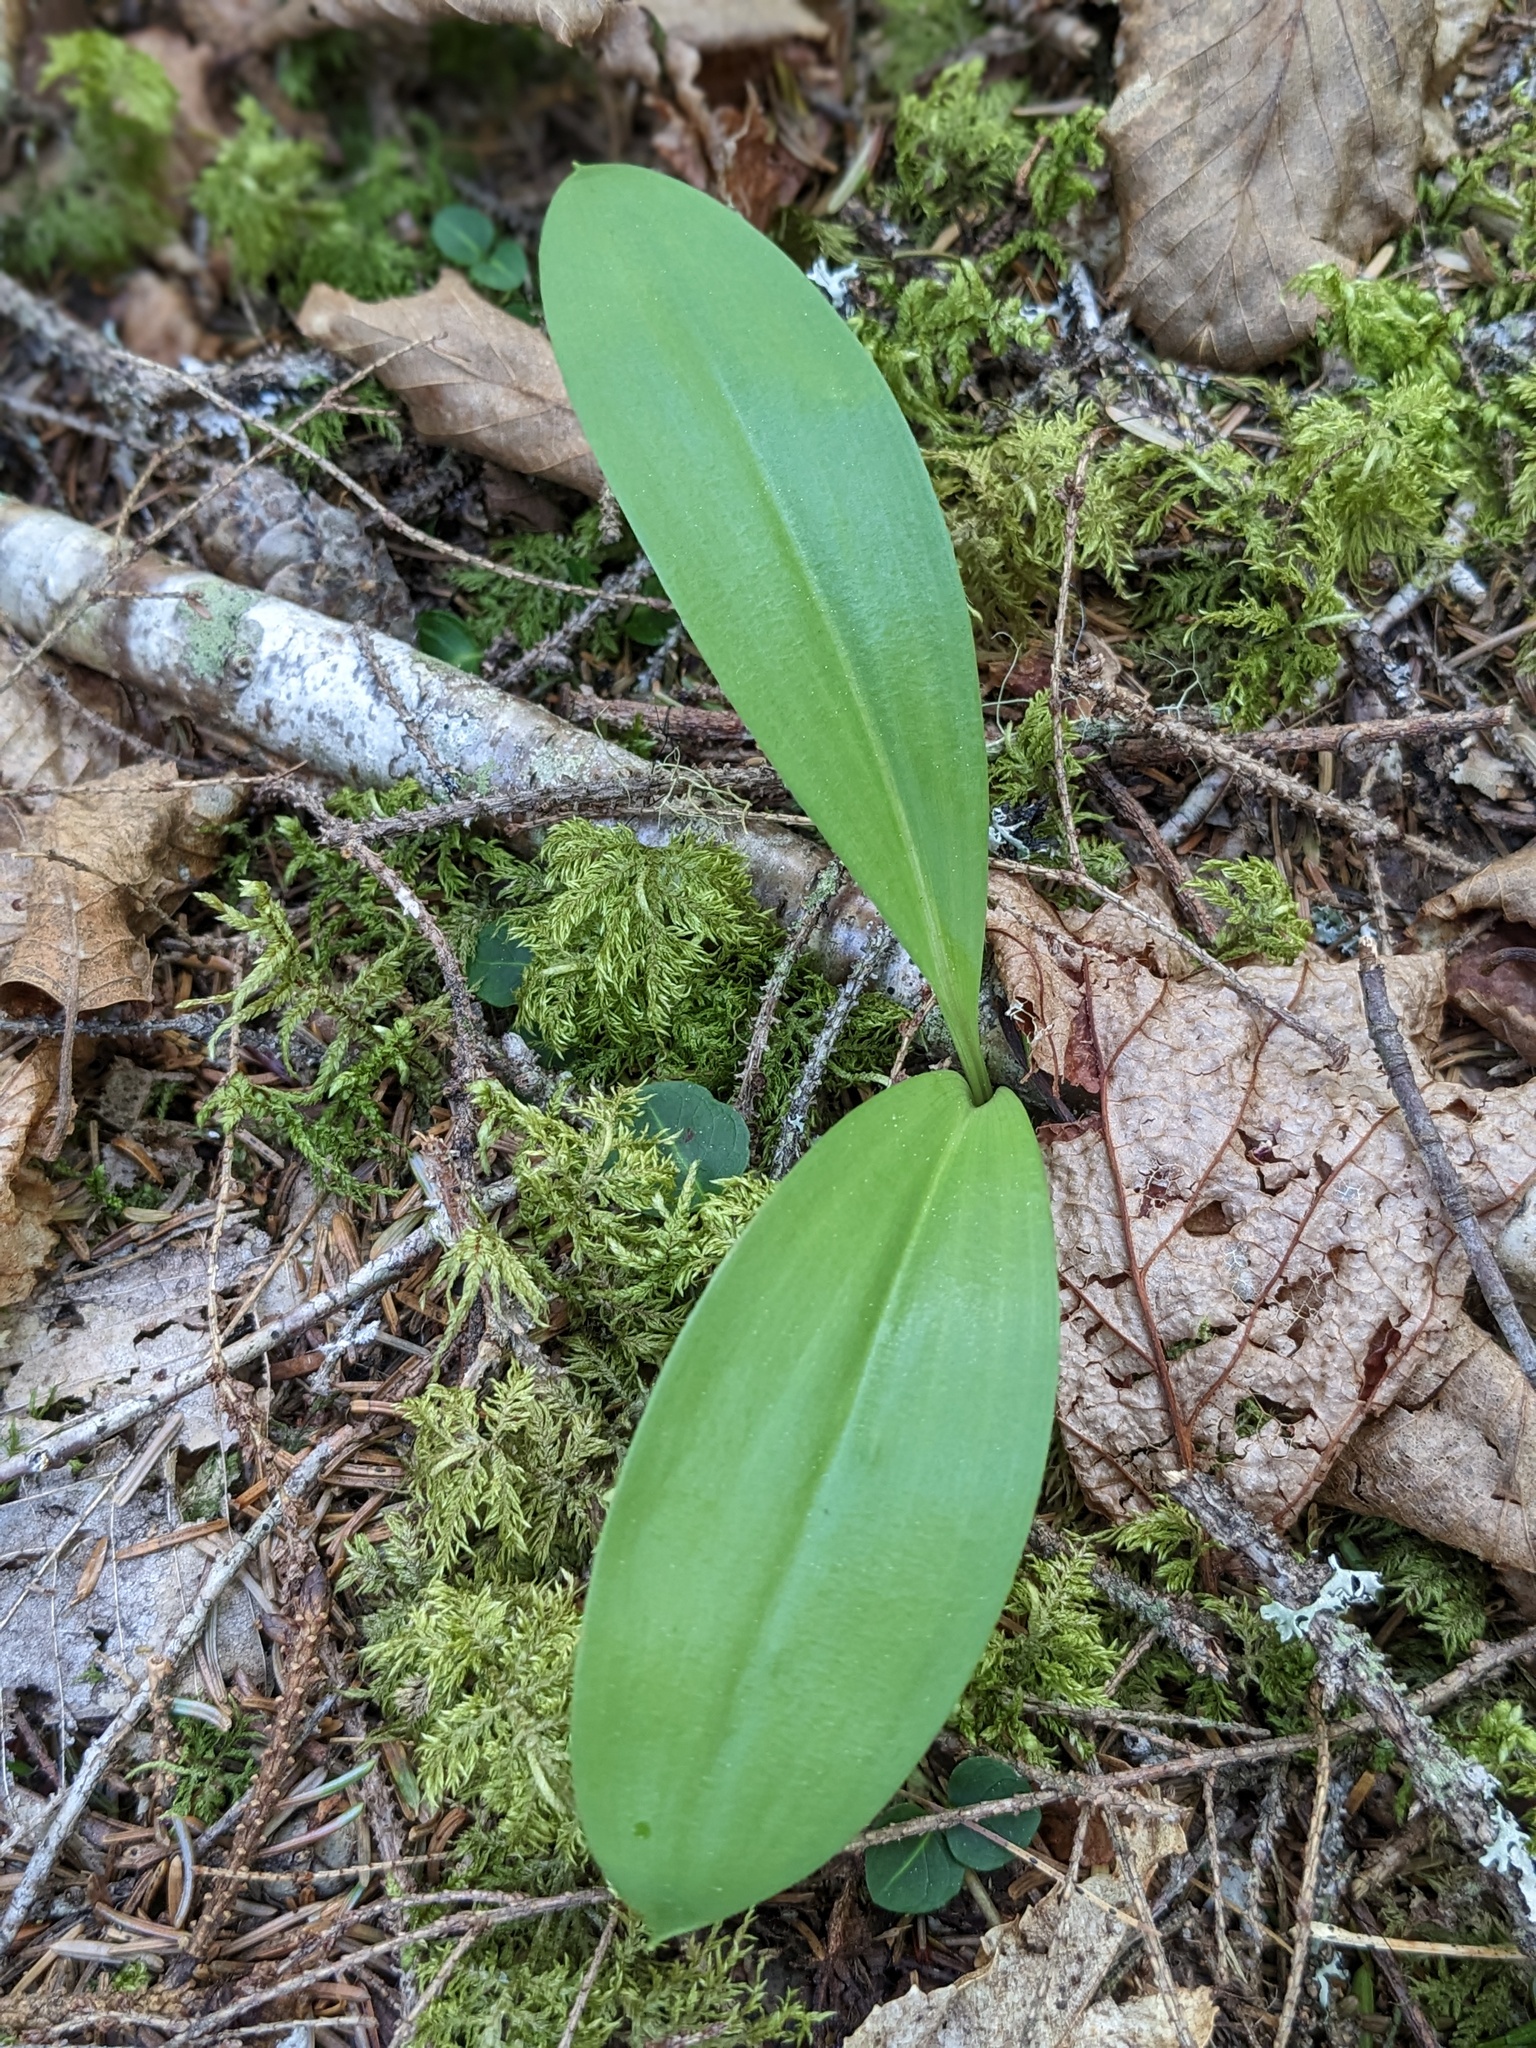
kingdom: Plantae
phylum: Tracheophyta
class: Liliopsida
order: Liliales
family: Liliaceae
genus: Clintonia
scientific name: Clintonia borealis
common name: Yellow clintonia
